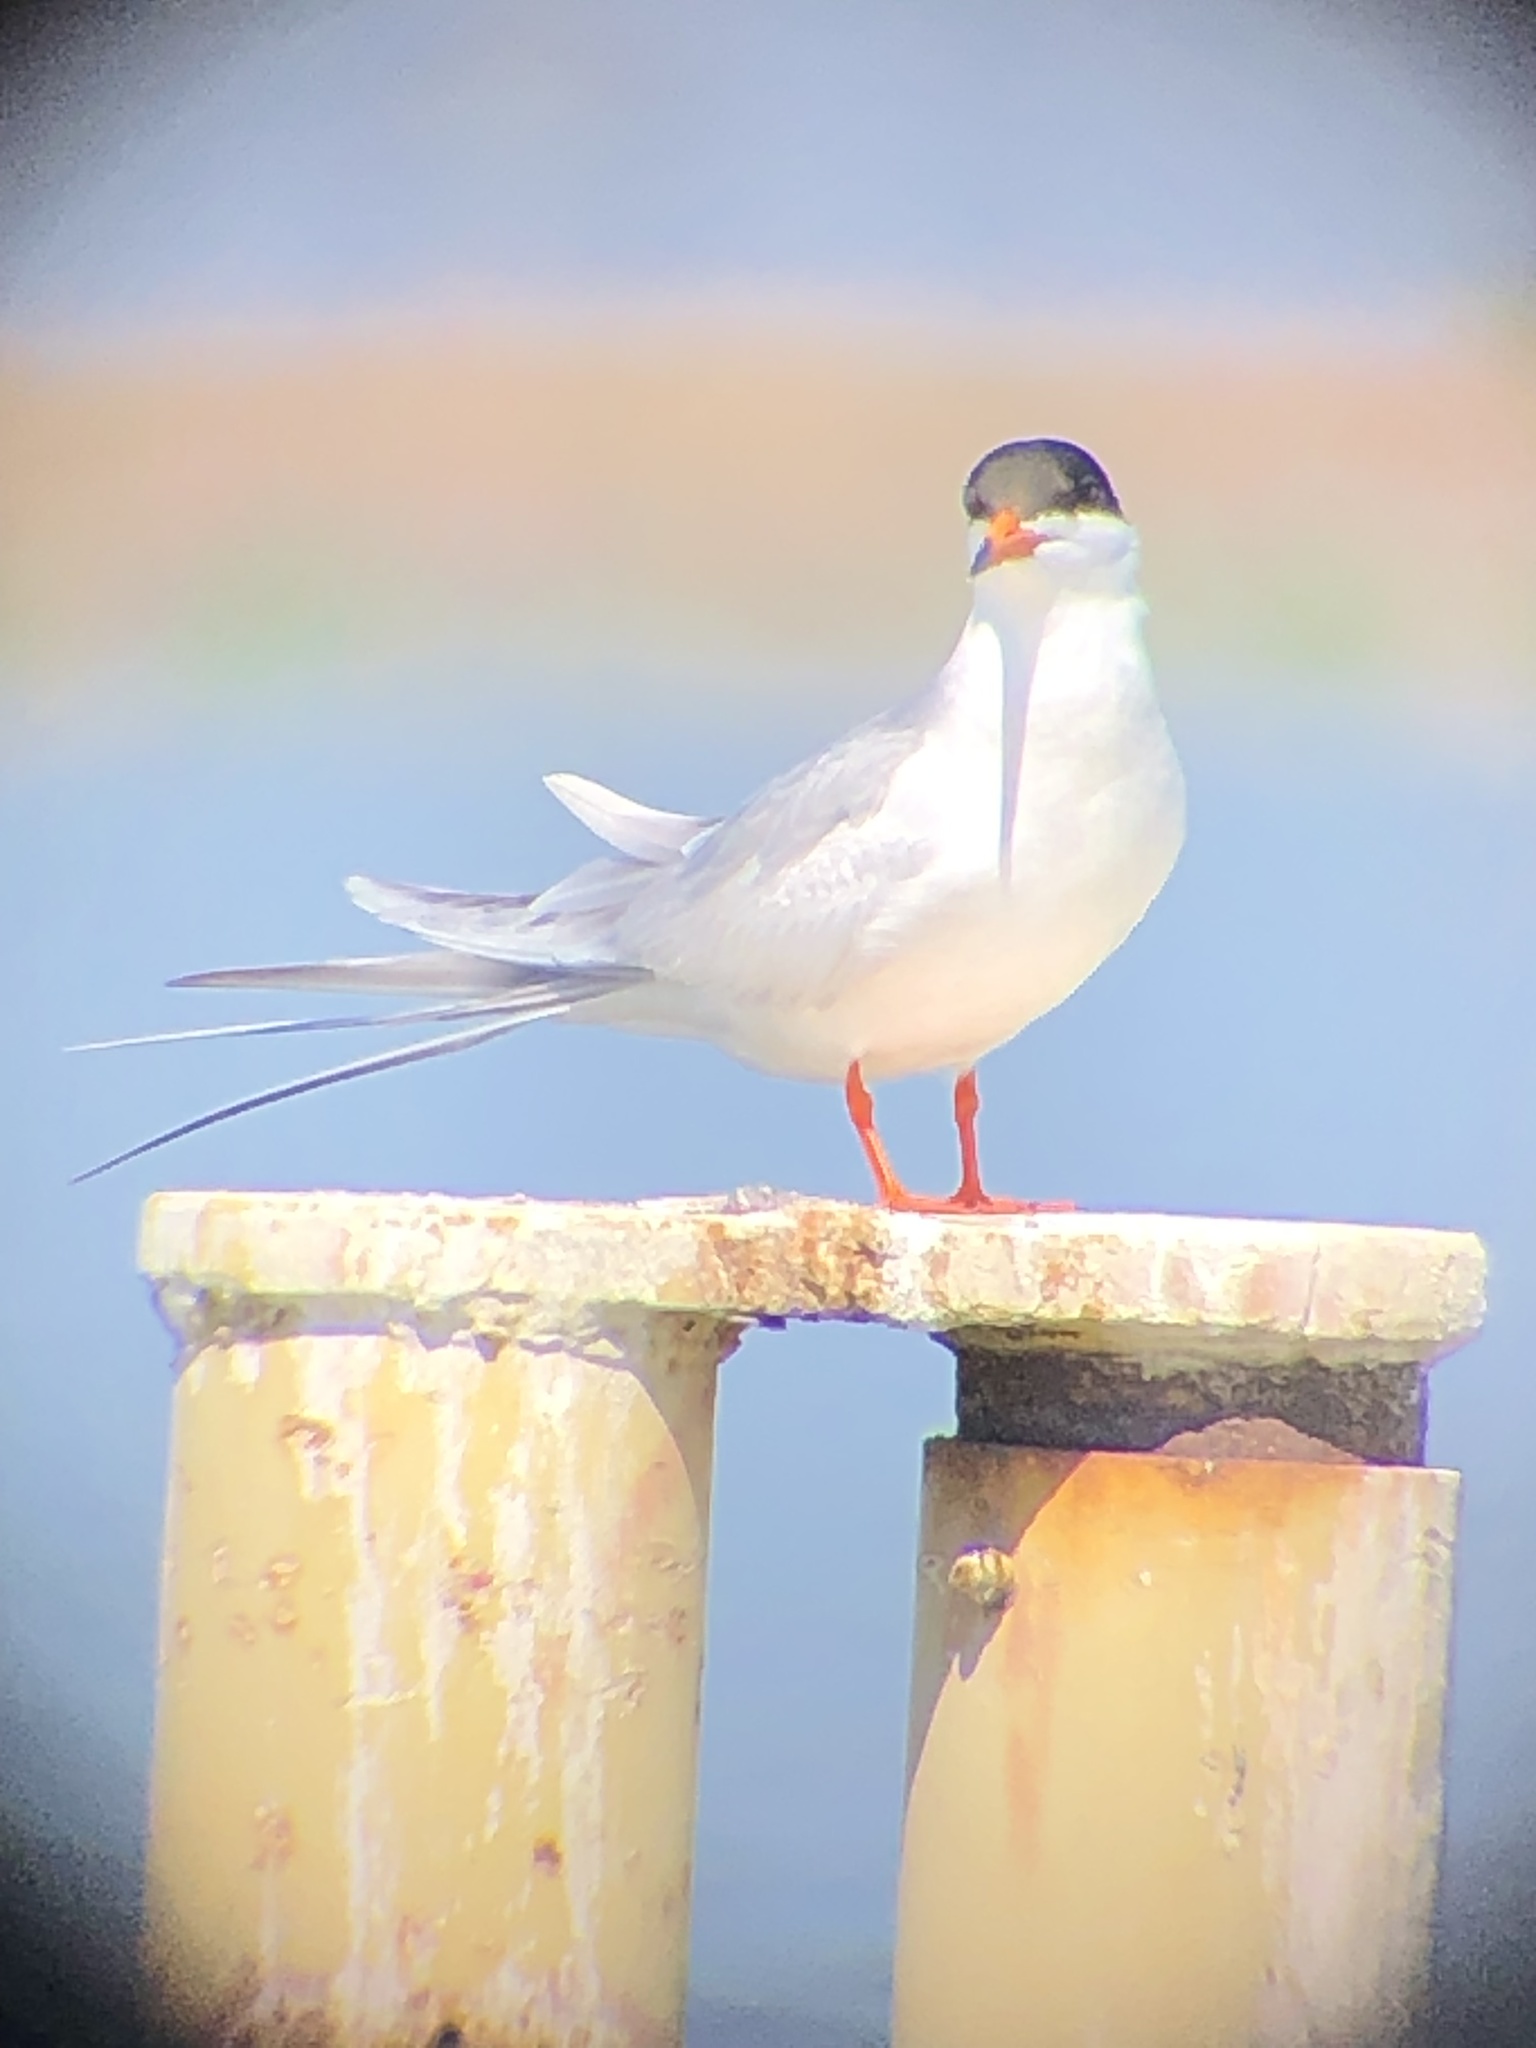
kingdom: Animalia
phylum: Chordata
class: Aves
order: Charadriiformes
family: Laridae
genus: Sterna
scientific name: Sterna forsteri
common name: Forster's tern
